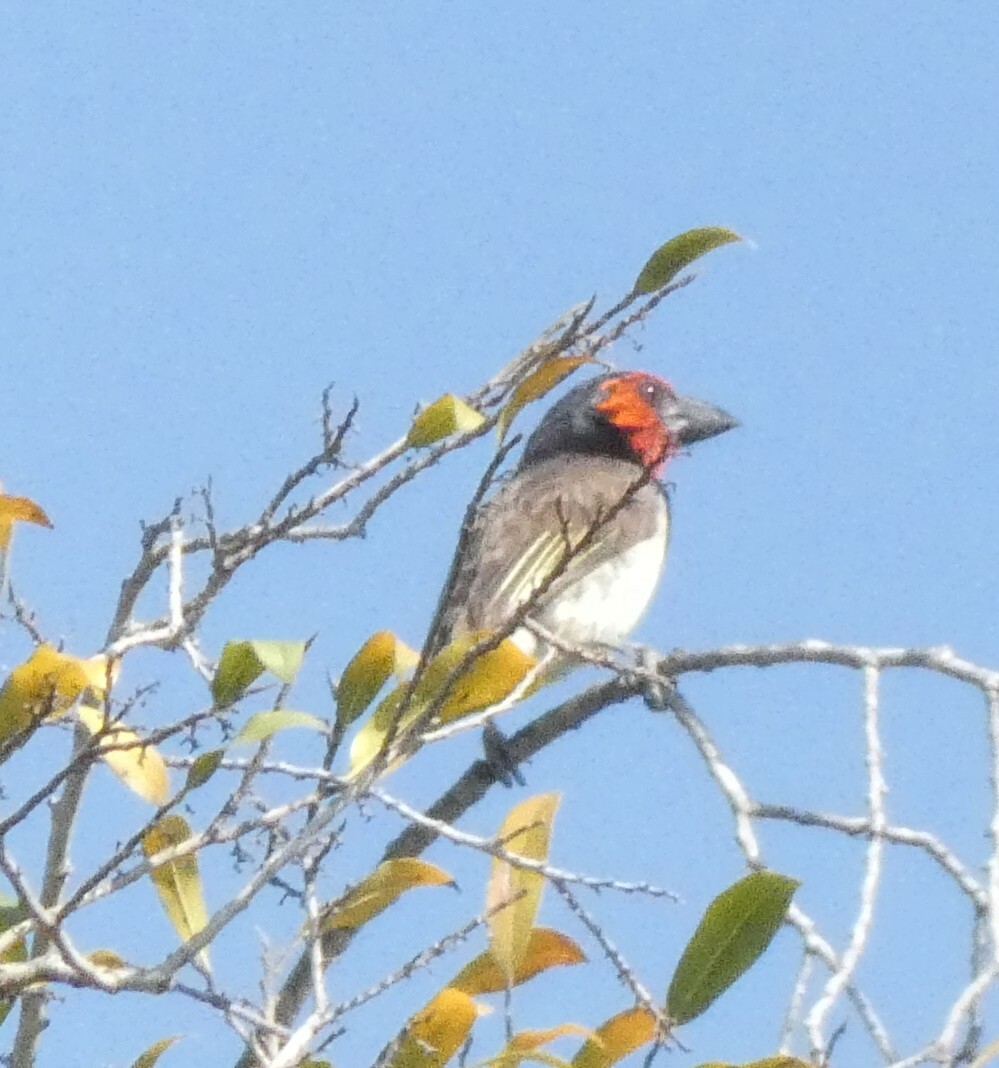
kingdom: Animalia
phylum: Chordata
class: Aves
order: Piciformes
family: Lybiidae
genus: Lybius
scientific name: Lybius torquatus
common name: Black-collared barbet
